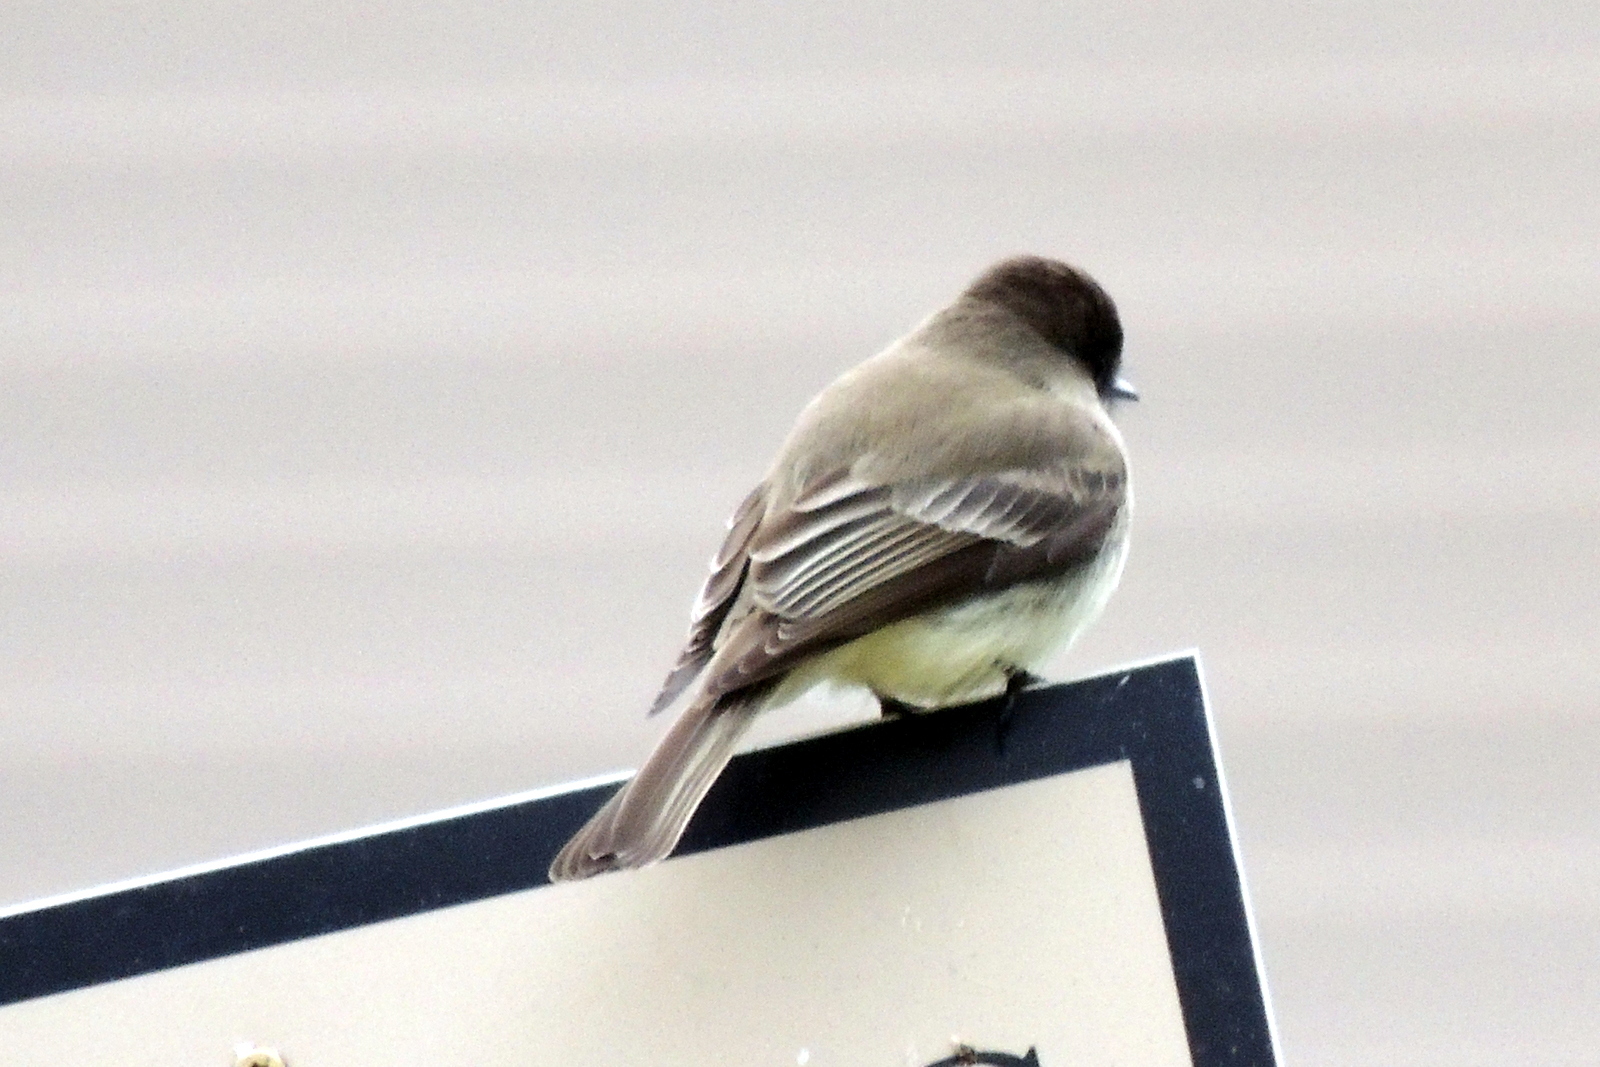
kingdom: Animalia
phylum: Chordata
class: Aves
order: Passeriformes
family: Tyrannidae
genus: Sayornis
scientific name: Sayornis phoebe
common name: Eastern phoebe
